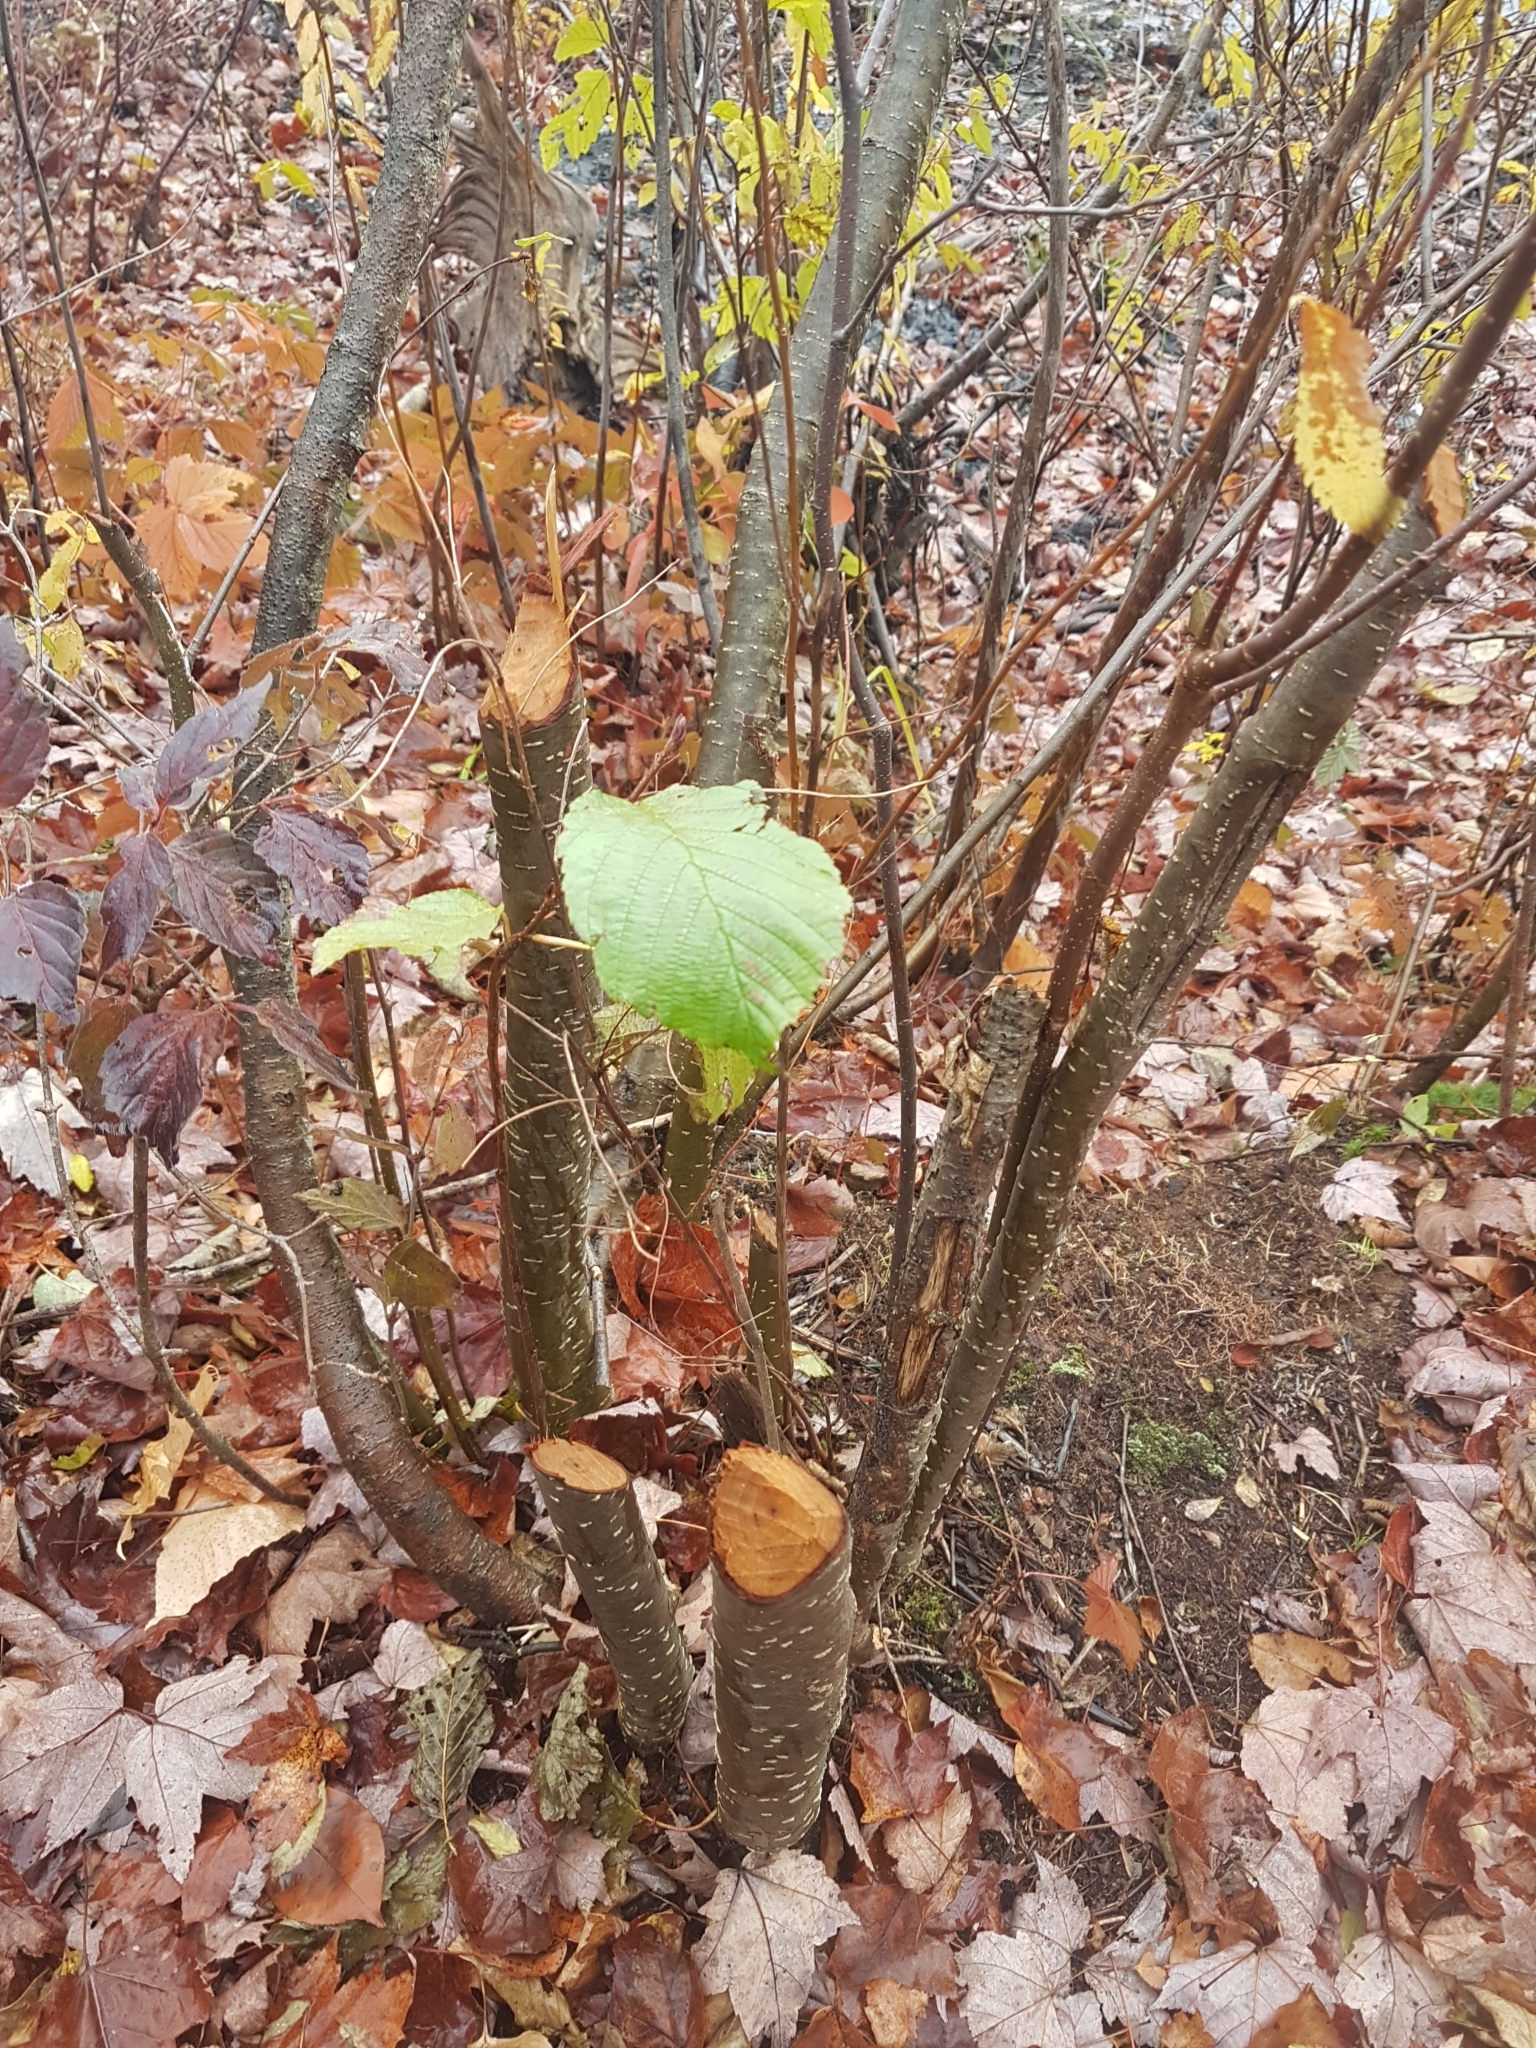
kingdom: Animalia
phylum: Chordata
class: Mammalia
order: Rodentia
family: Castoridae
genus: Castor
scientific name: Castor canadensis
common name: American beaver
